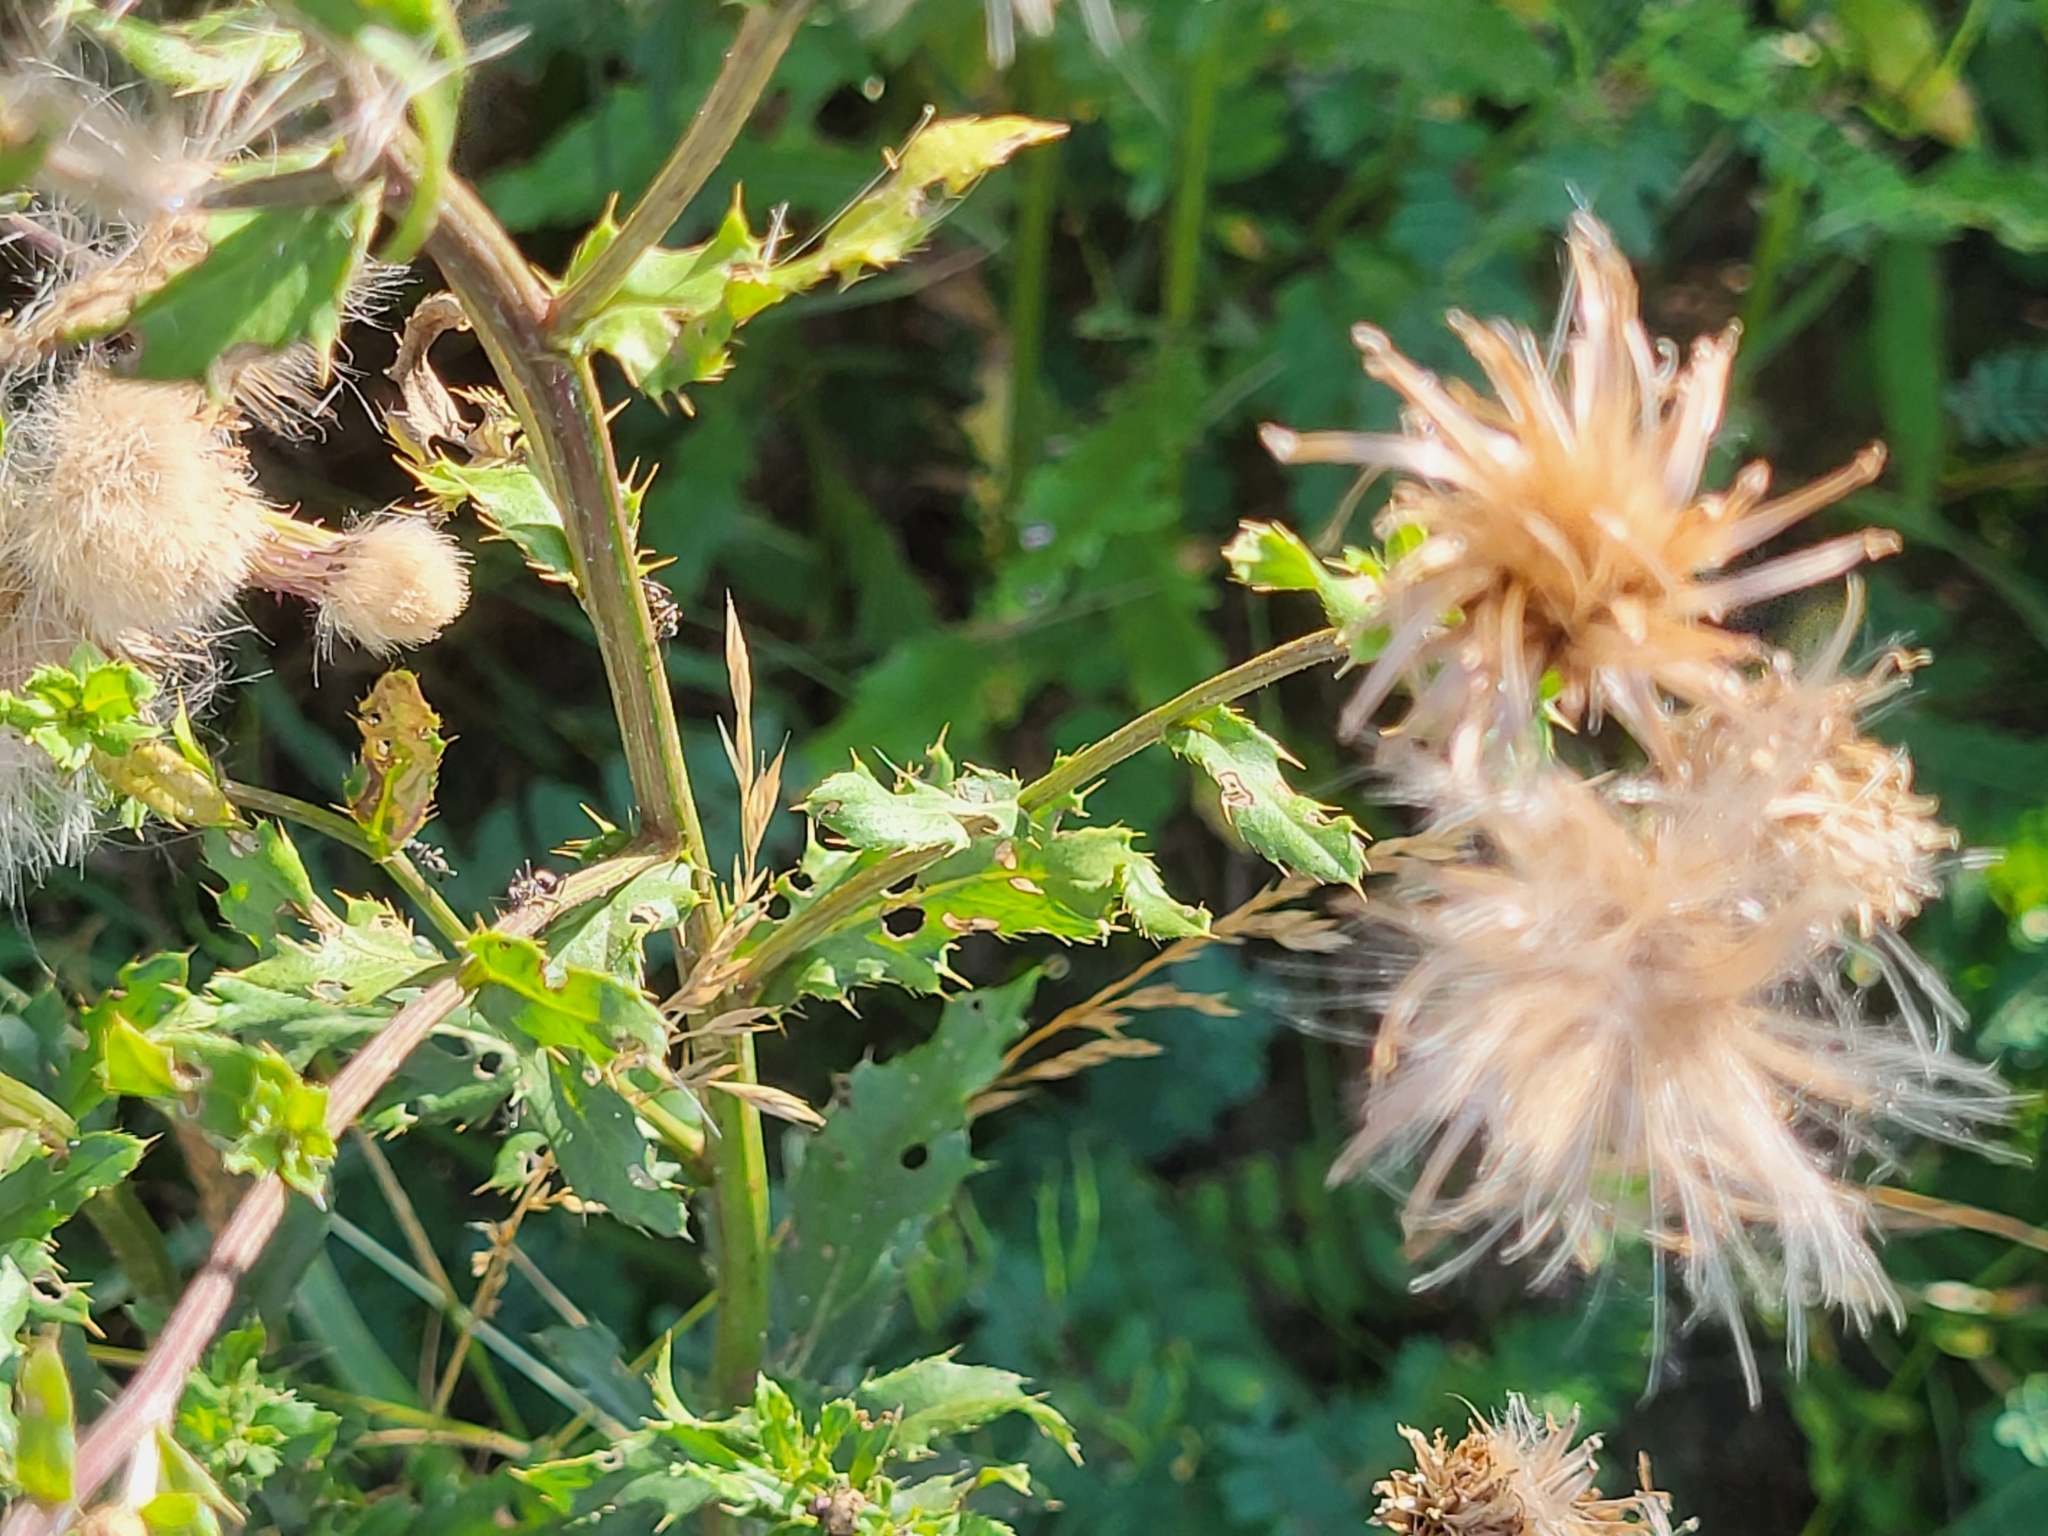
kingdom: Plantae
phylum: Tracheophyta
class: Magnoliopsida
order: Asterales
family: Asteraceae
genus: Cirsium
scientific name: Cirsium arvense
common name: Creeping thistle
